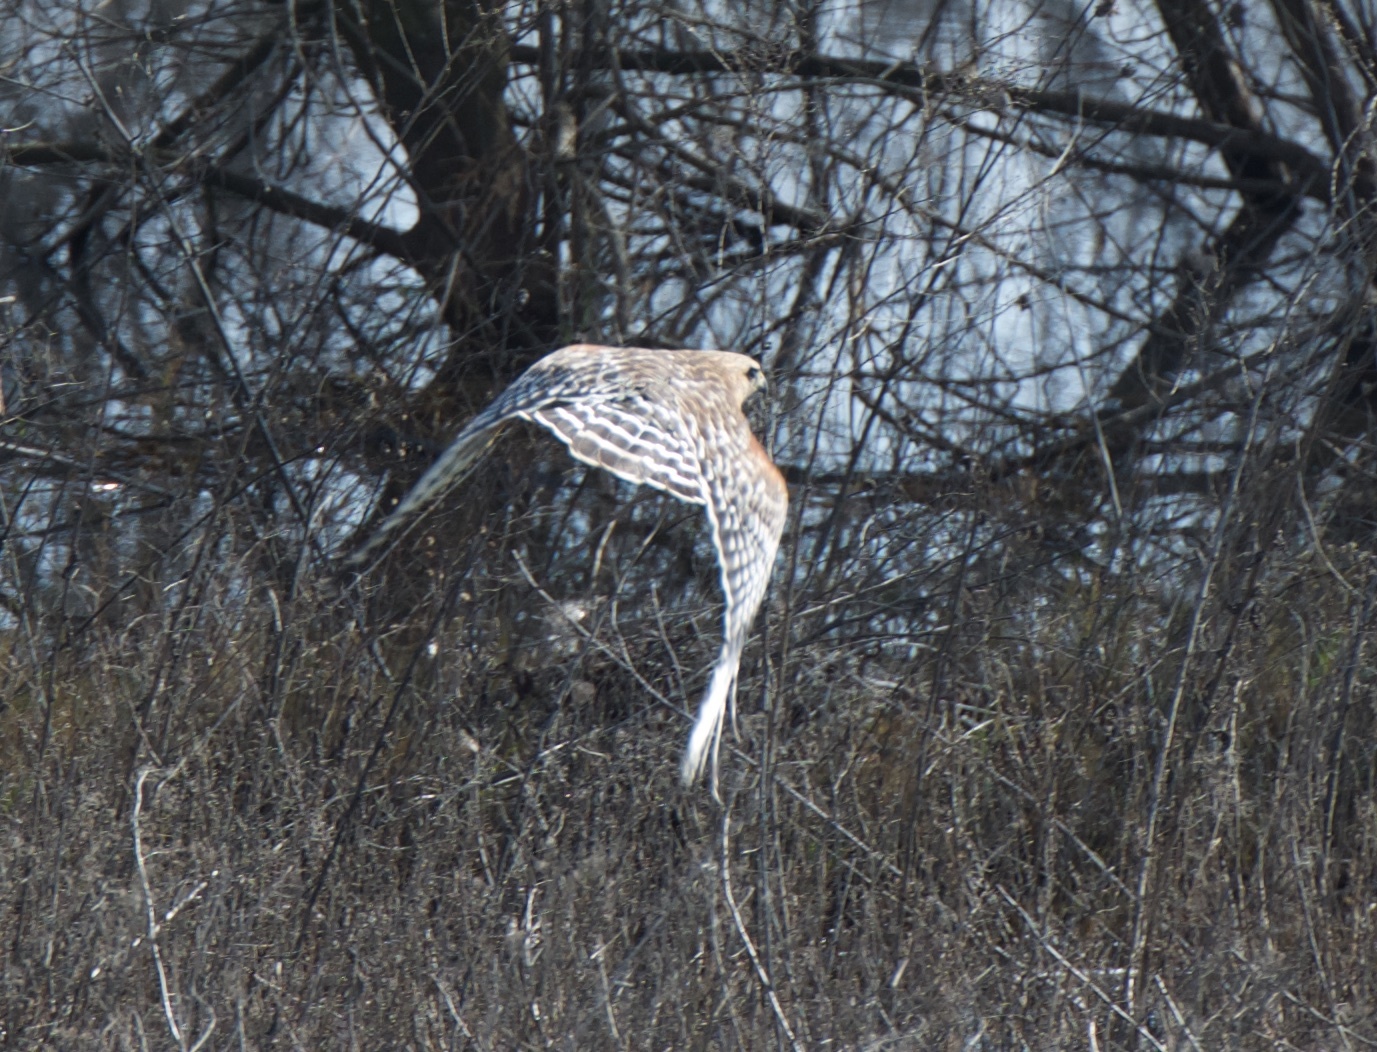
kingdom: Animalia
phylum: Chordata
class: Aves
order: Accipitriformes
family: Accipitridae
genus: Buteo
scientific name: Buteo lineatus
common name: Red-shouldered hawk
